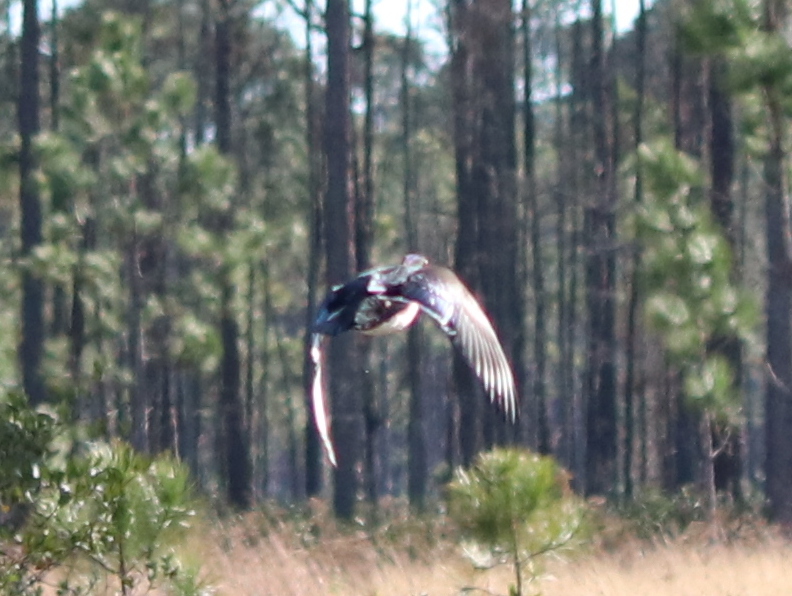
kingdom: Animalia
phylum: Chordata
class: Aves
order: Anseriformes
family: Anatidae
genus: Aix
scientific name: Aix sponsa
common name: Wood duck
